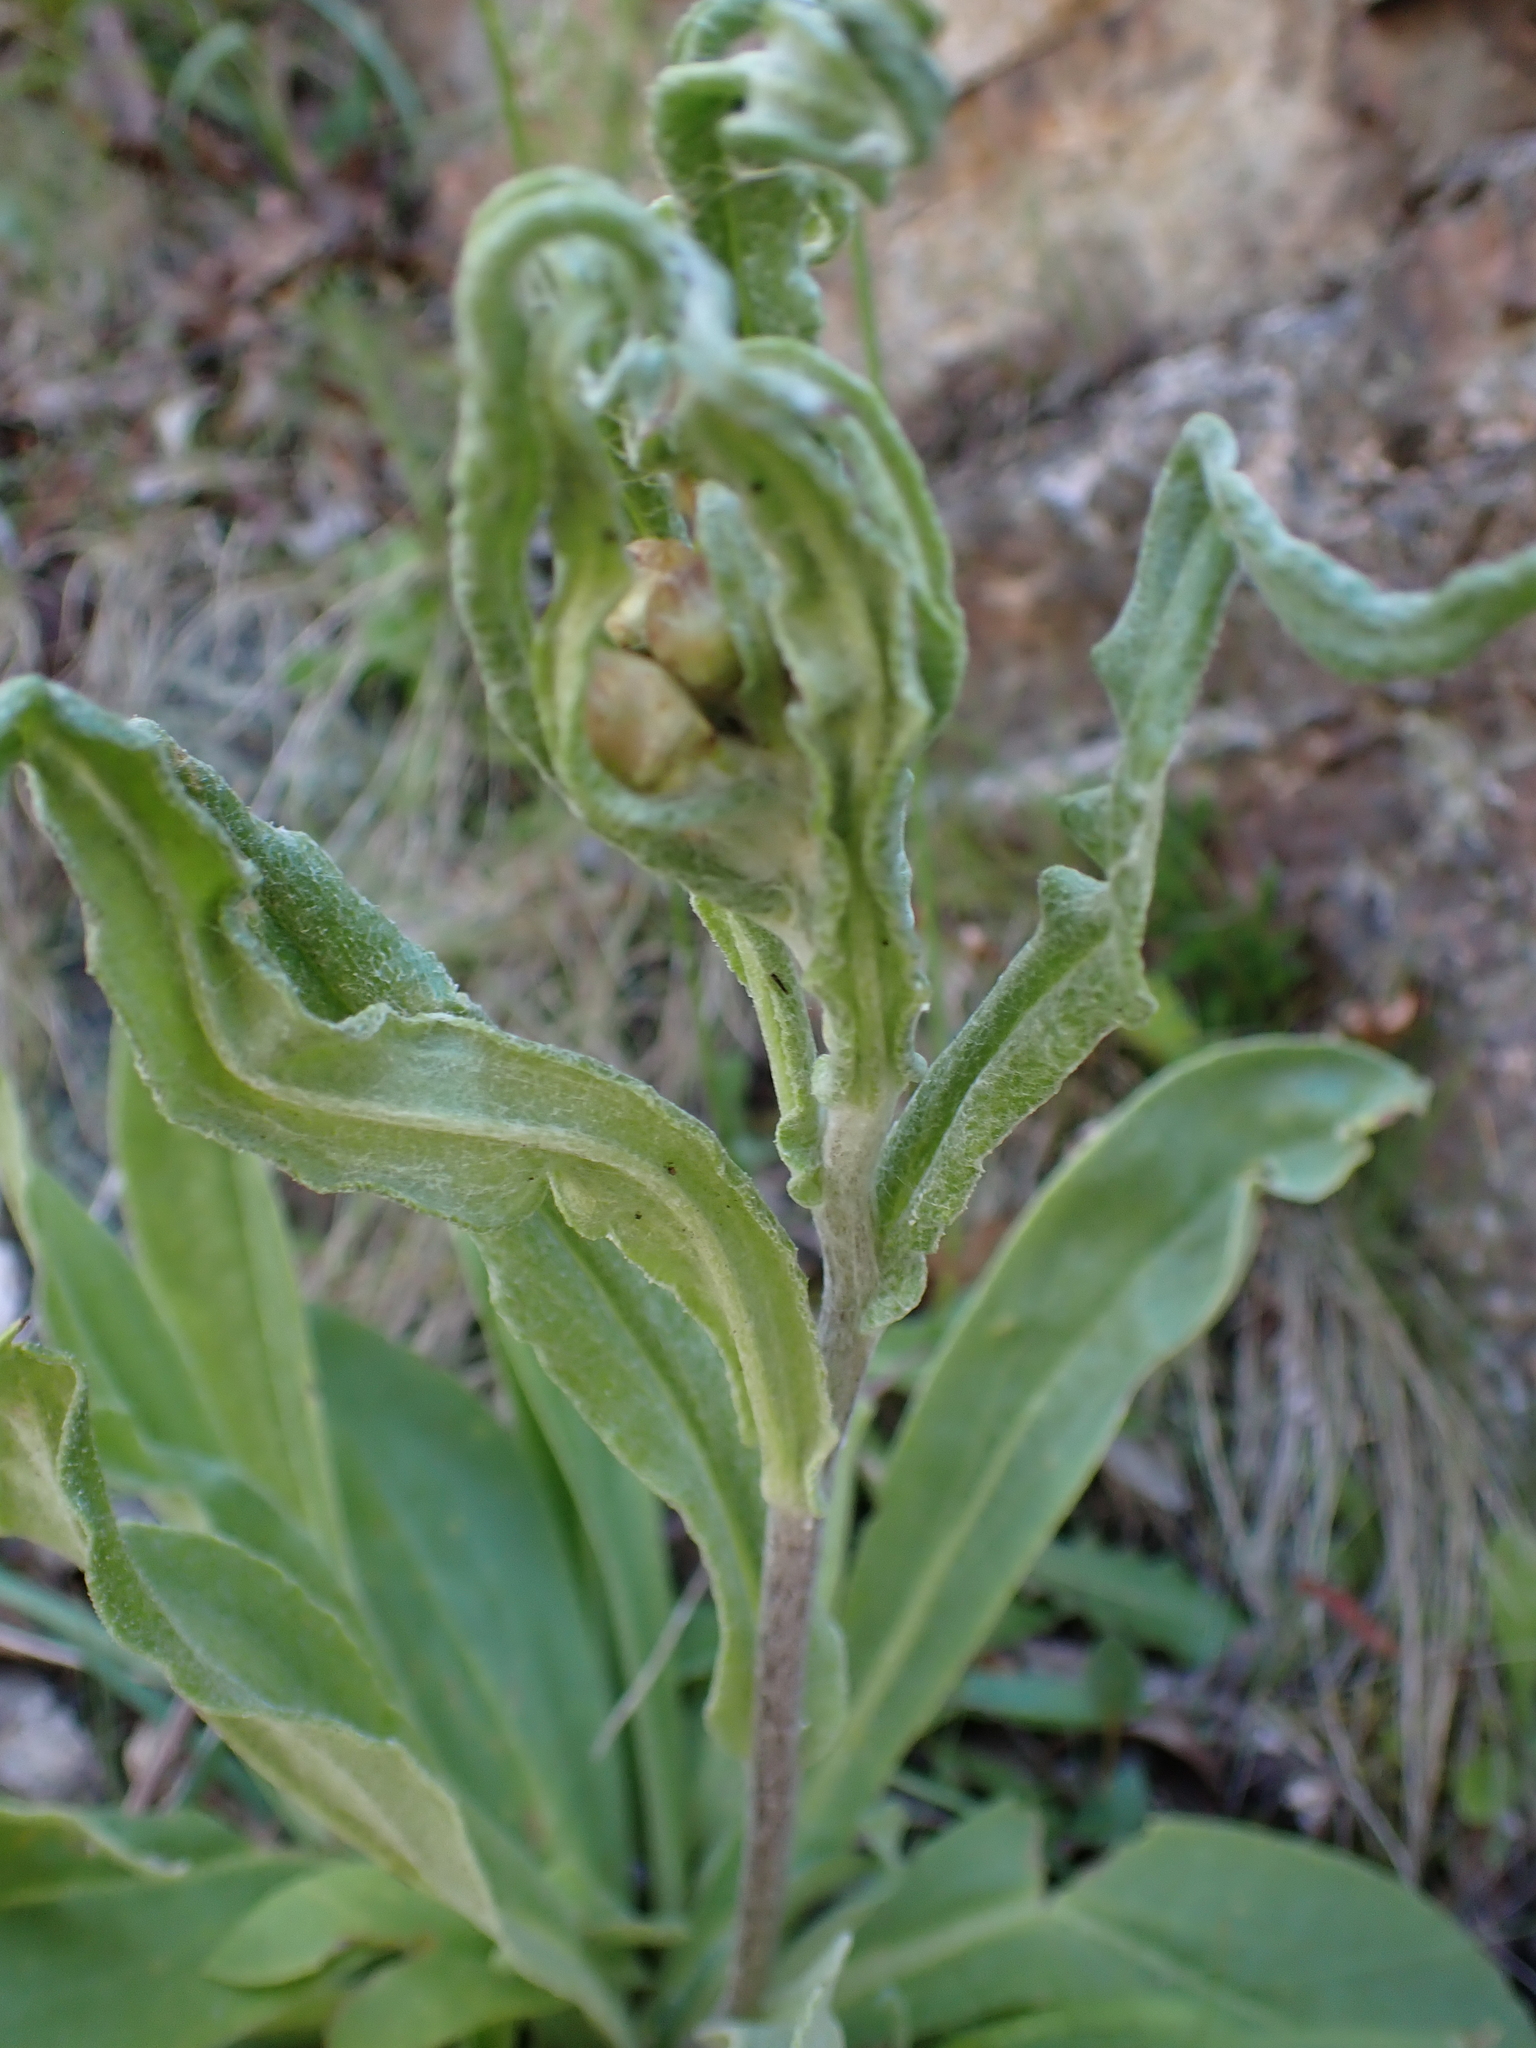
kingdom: Plantae
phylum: Tracheophyta
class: Magnoliopsida
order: Asterales
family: Asteraceae
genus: Podolepis
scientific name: Podolepis laciniata
